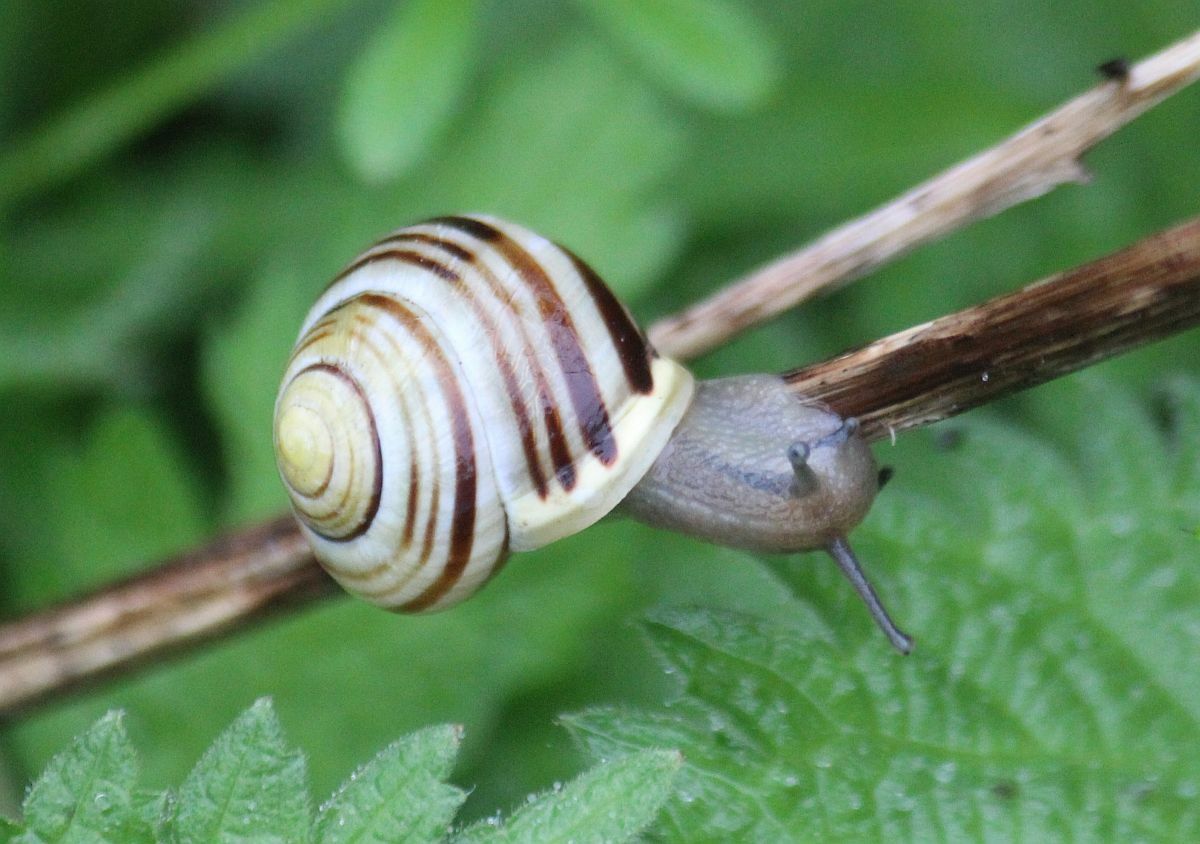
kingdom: Animalia
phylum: Mollusca
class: Gastropoda
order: Stylommatophora
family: Helicidae
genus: Cepaea
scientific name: Cepaea hortensis
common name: White-lip gardensnail
